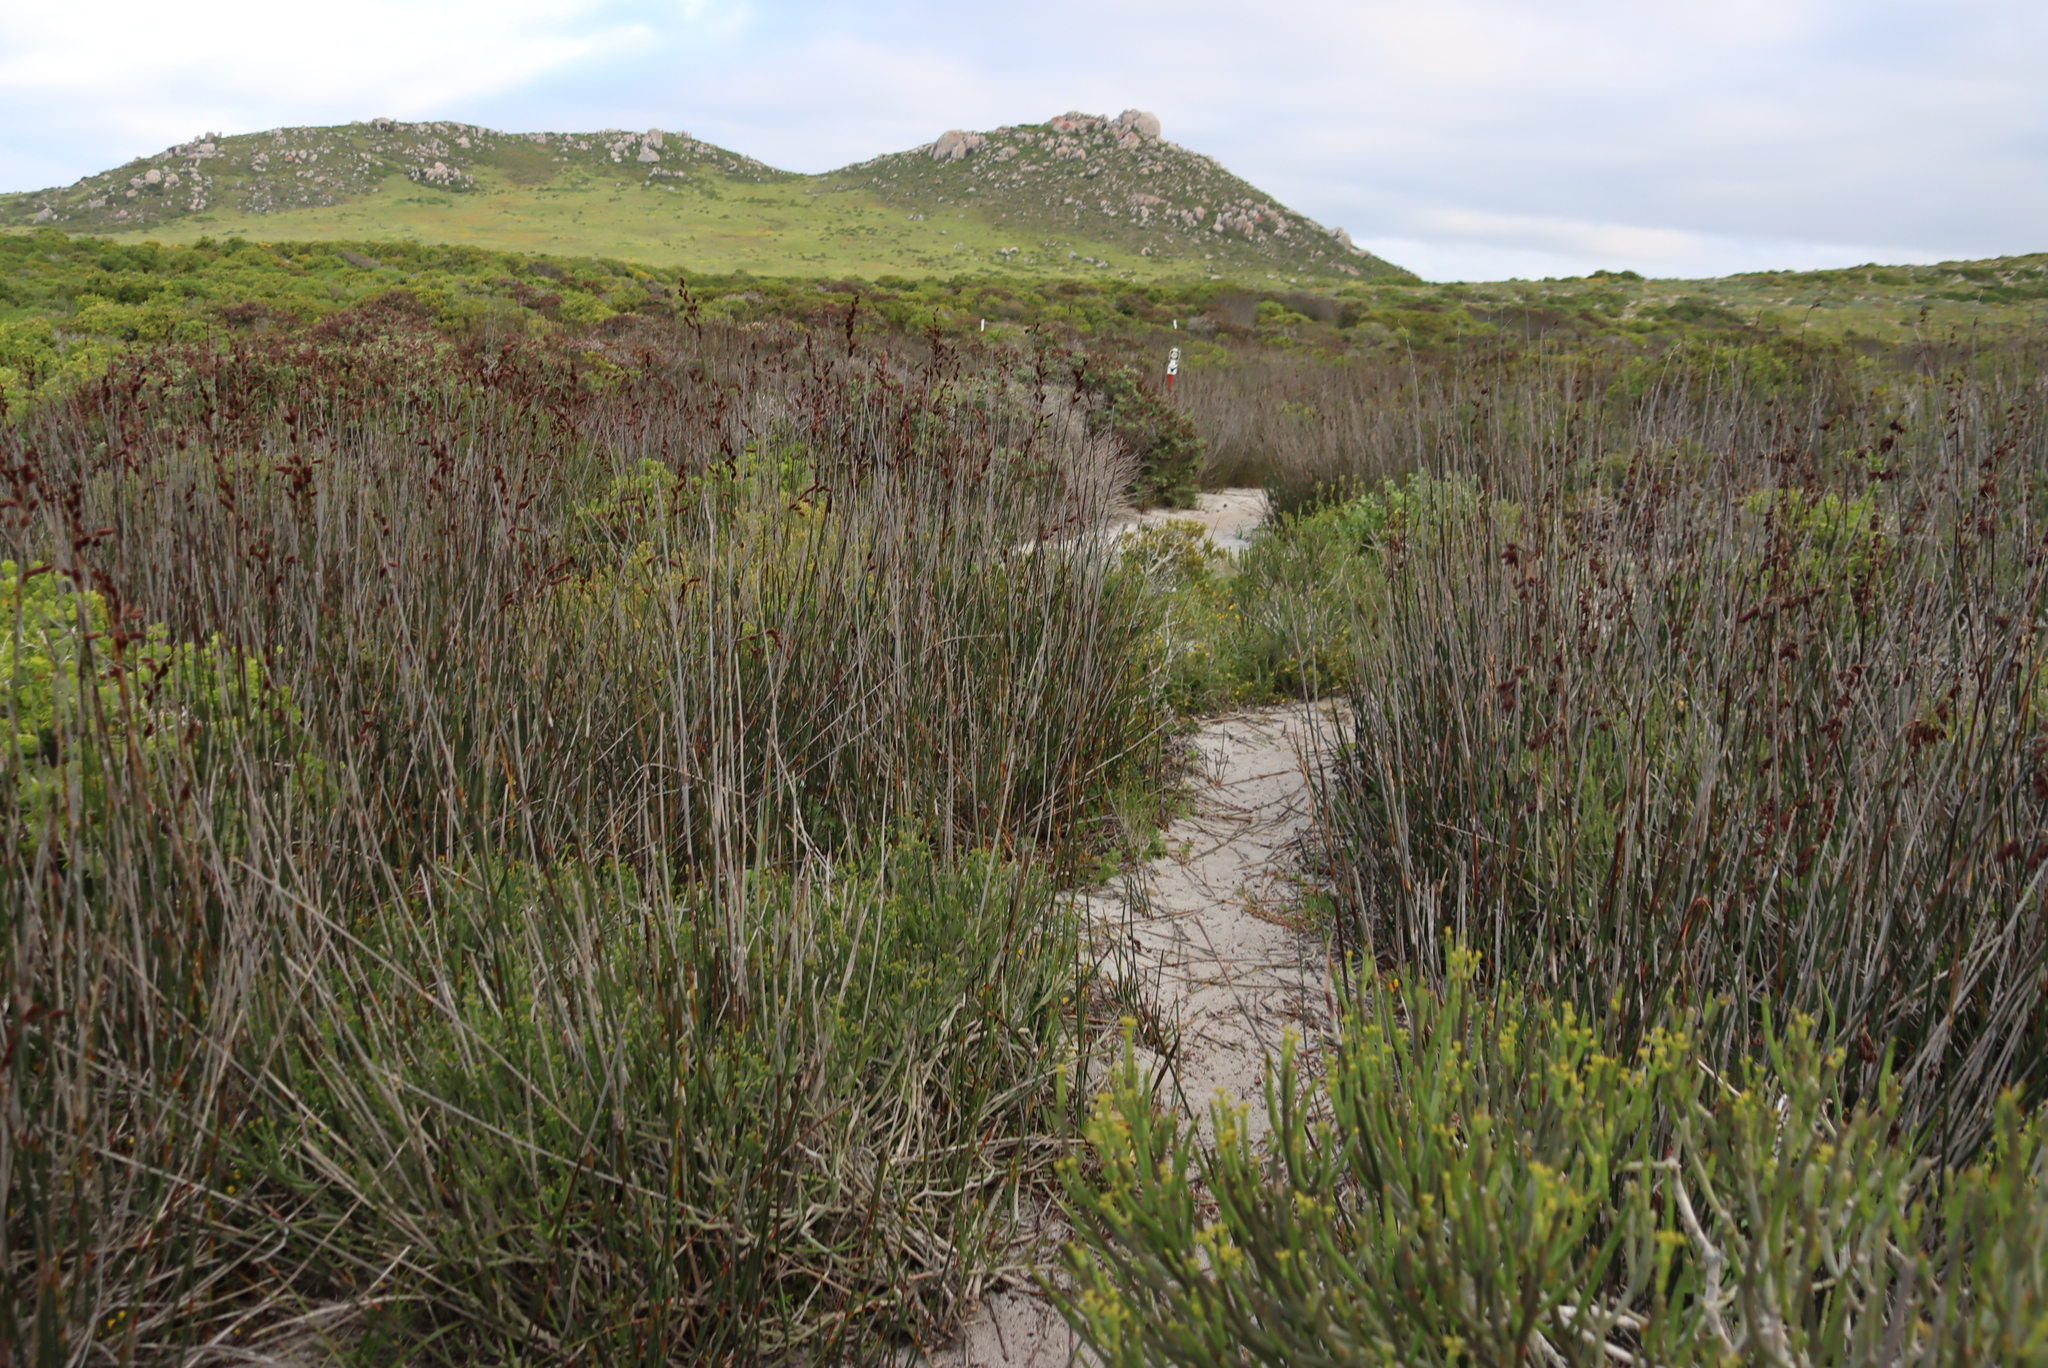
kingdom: Plantae
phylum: Tracheophyta
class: Liliopsida
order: Poales
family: Restionaceae
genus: Thamnochortus
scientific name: Thamnochortus spicigerus
